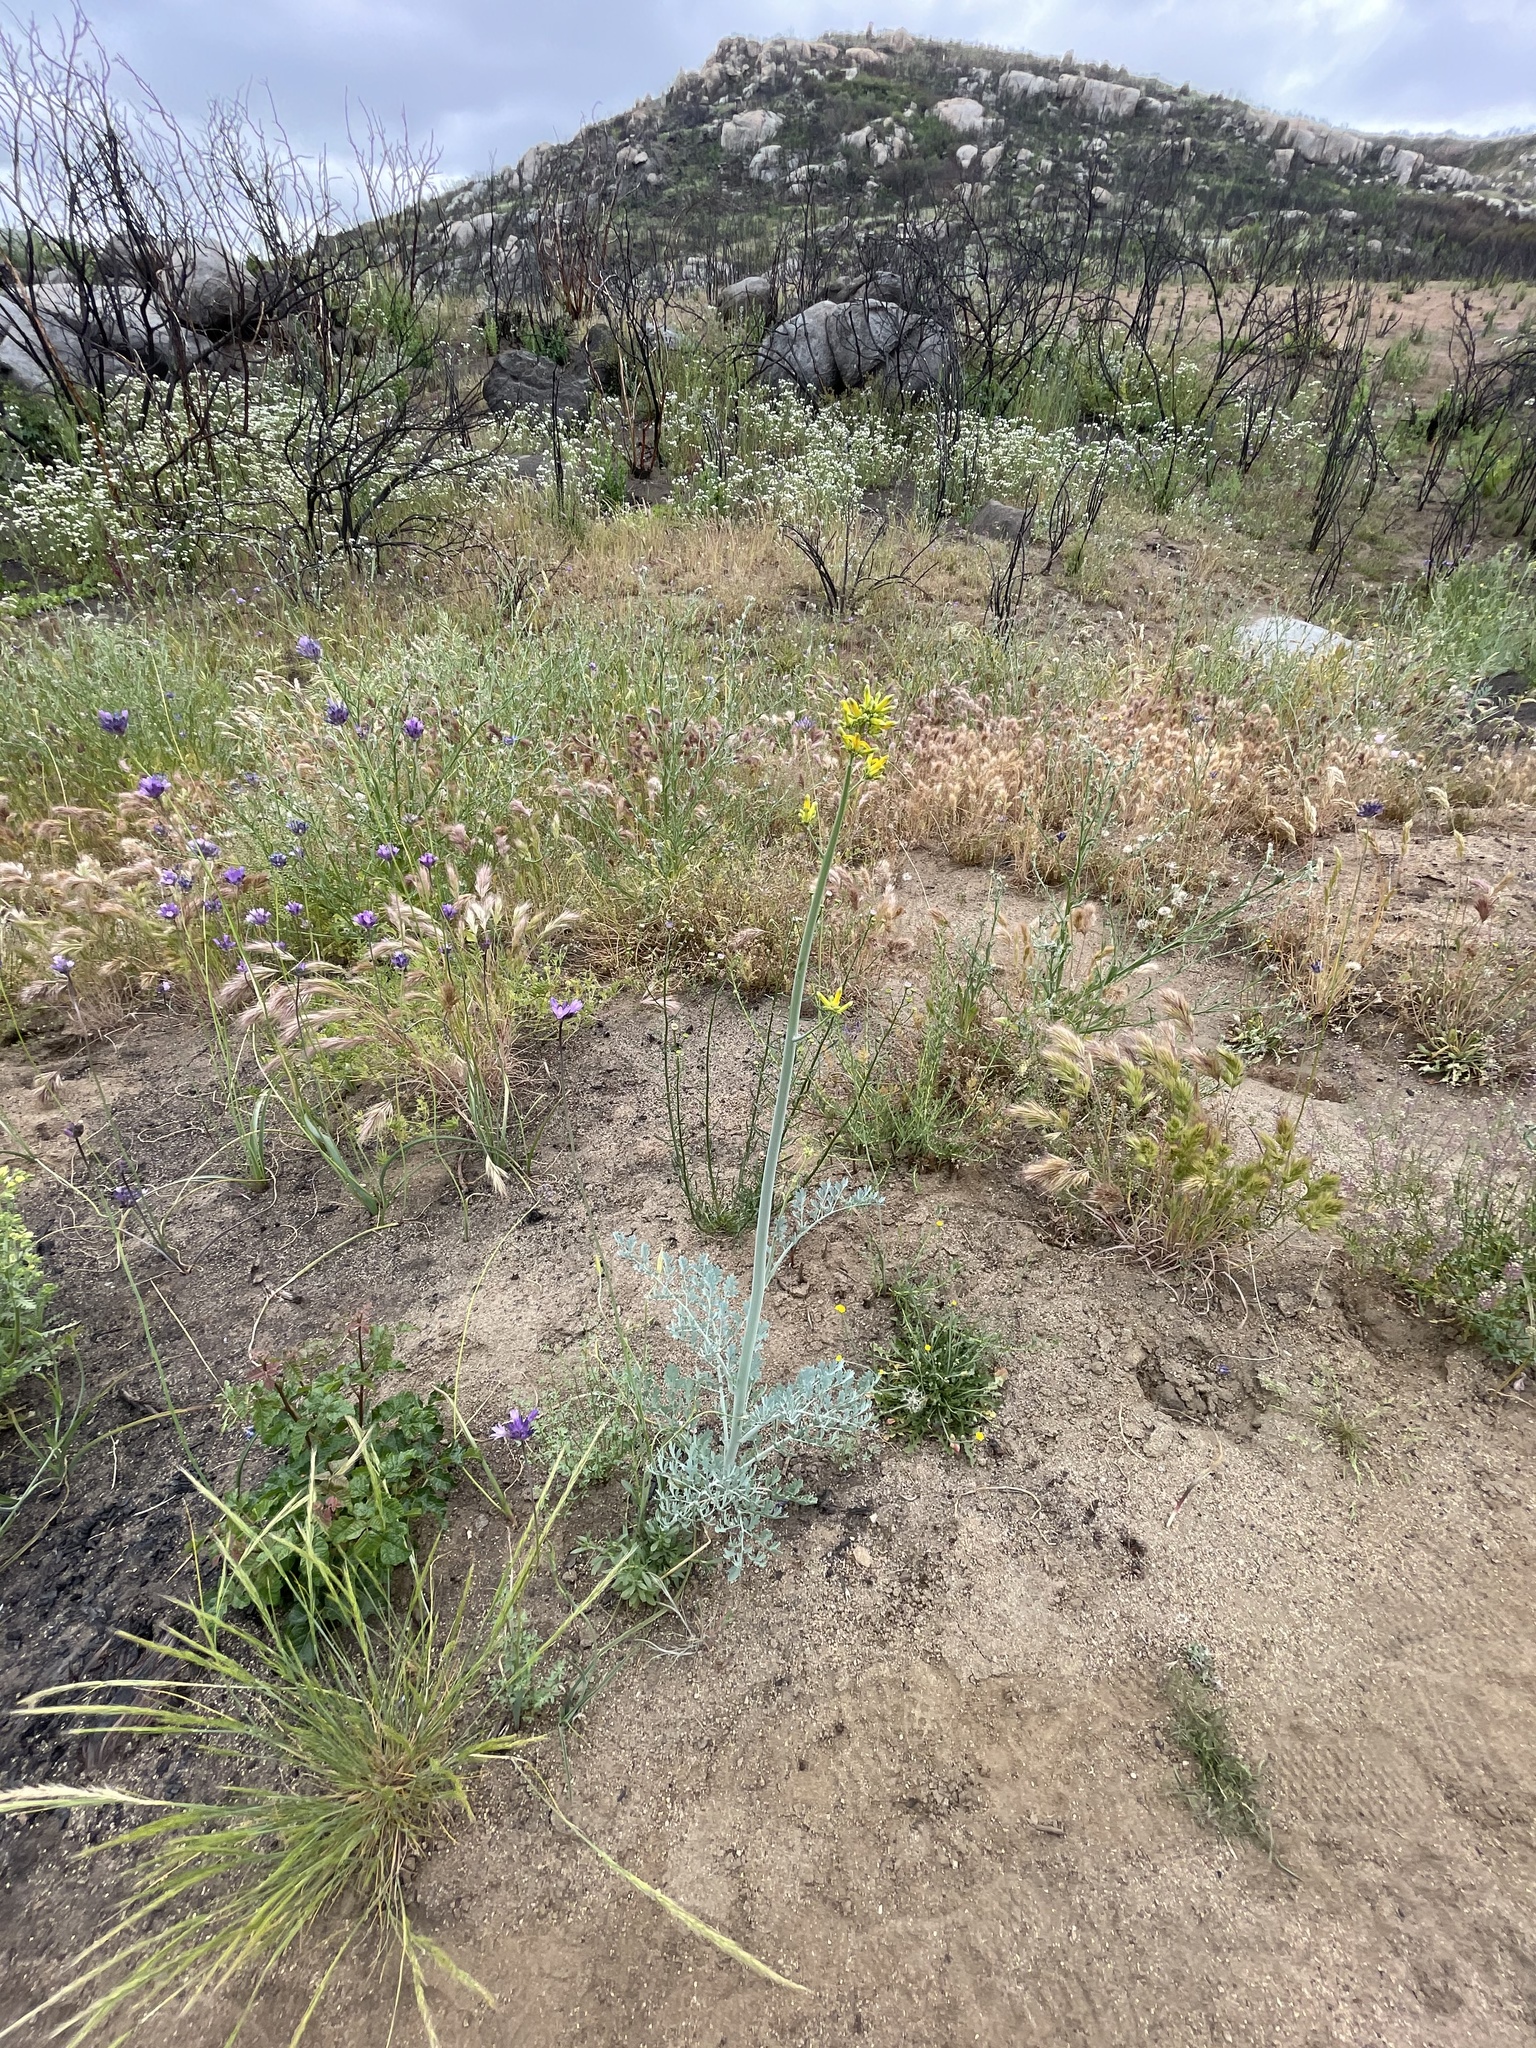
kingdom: Plantae
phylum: Tracheophyta
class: Magnoliopsida
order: Ranunculales
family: Papaveraceae
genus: Ehrendorferia
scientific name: Ehrendorferia chrysantha
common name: Golden eardrops
